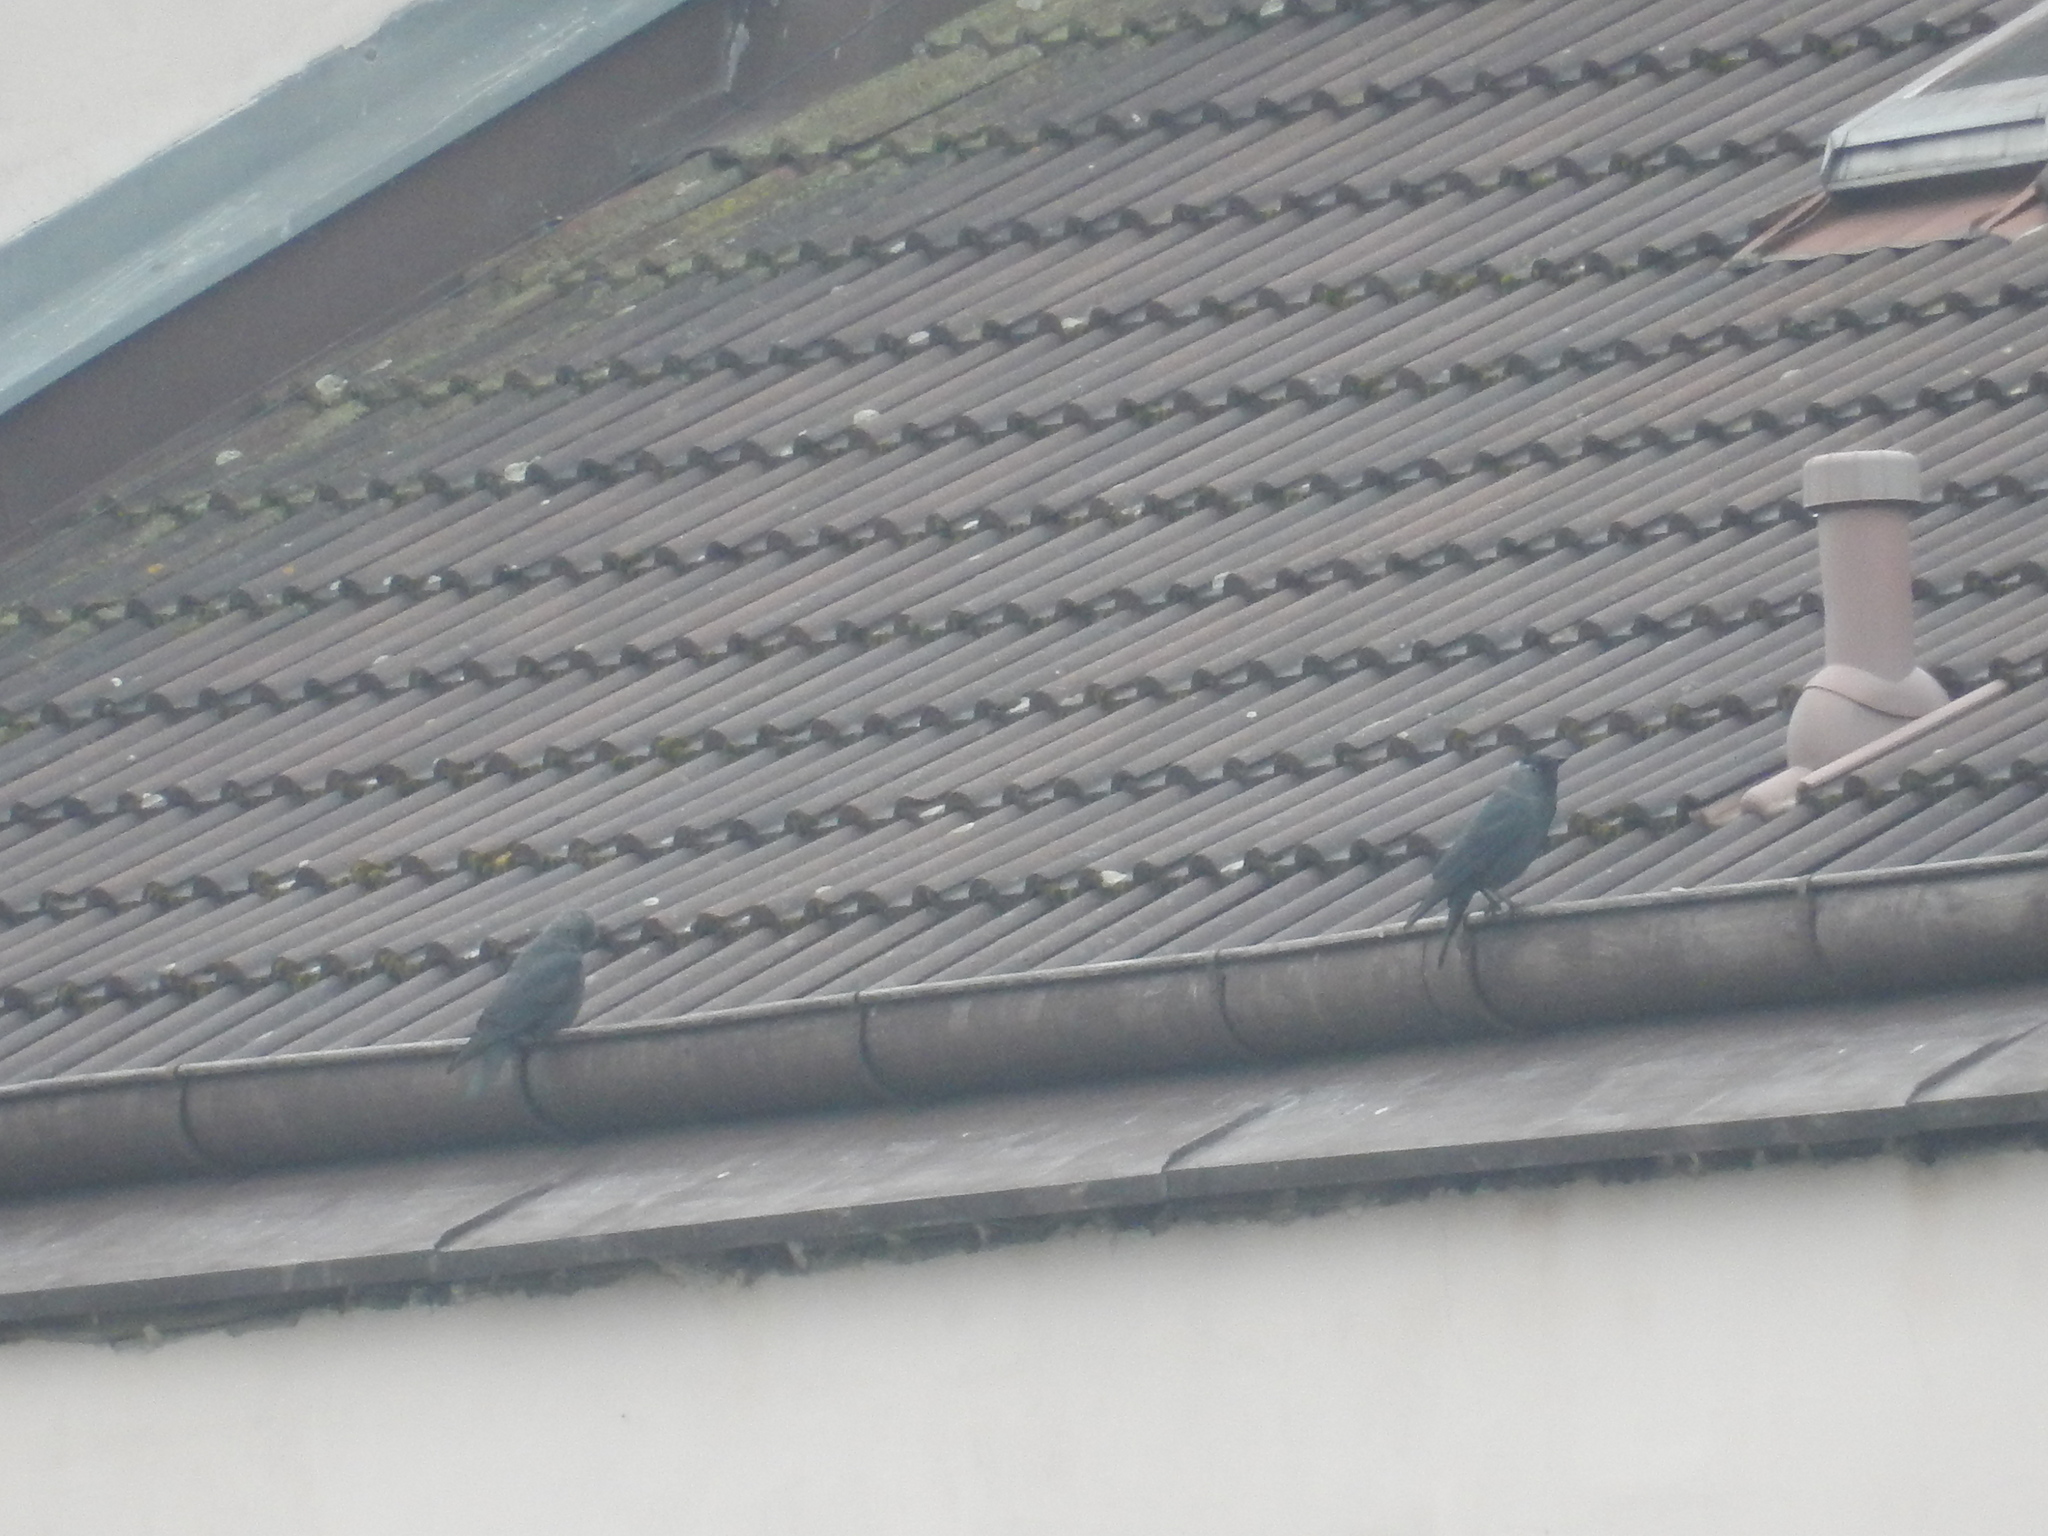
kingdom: Animalia
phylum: Chordata
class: Aves
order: Passeriformes
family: Corvidae
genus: Coloeus
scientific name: Coloeus monedula
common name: Western jackdaw
